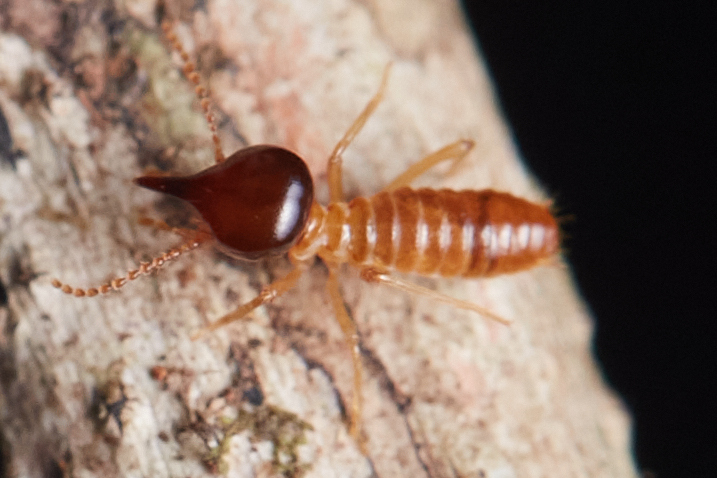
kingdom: Animalia
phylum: Arthropoda
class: Insecta
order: Blattodea
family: Termitidae
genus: Nasutitermes
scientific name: Nasutitermes corniger
